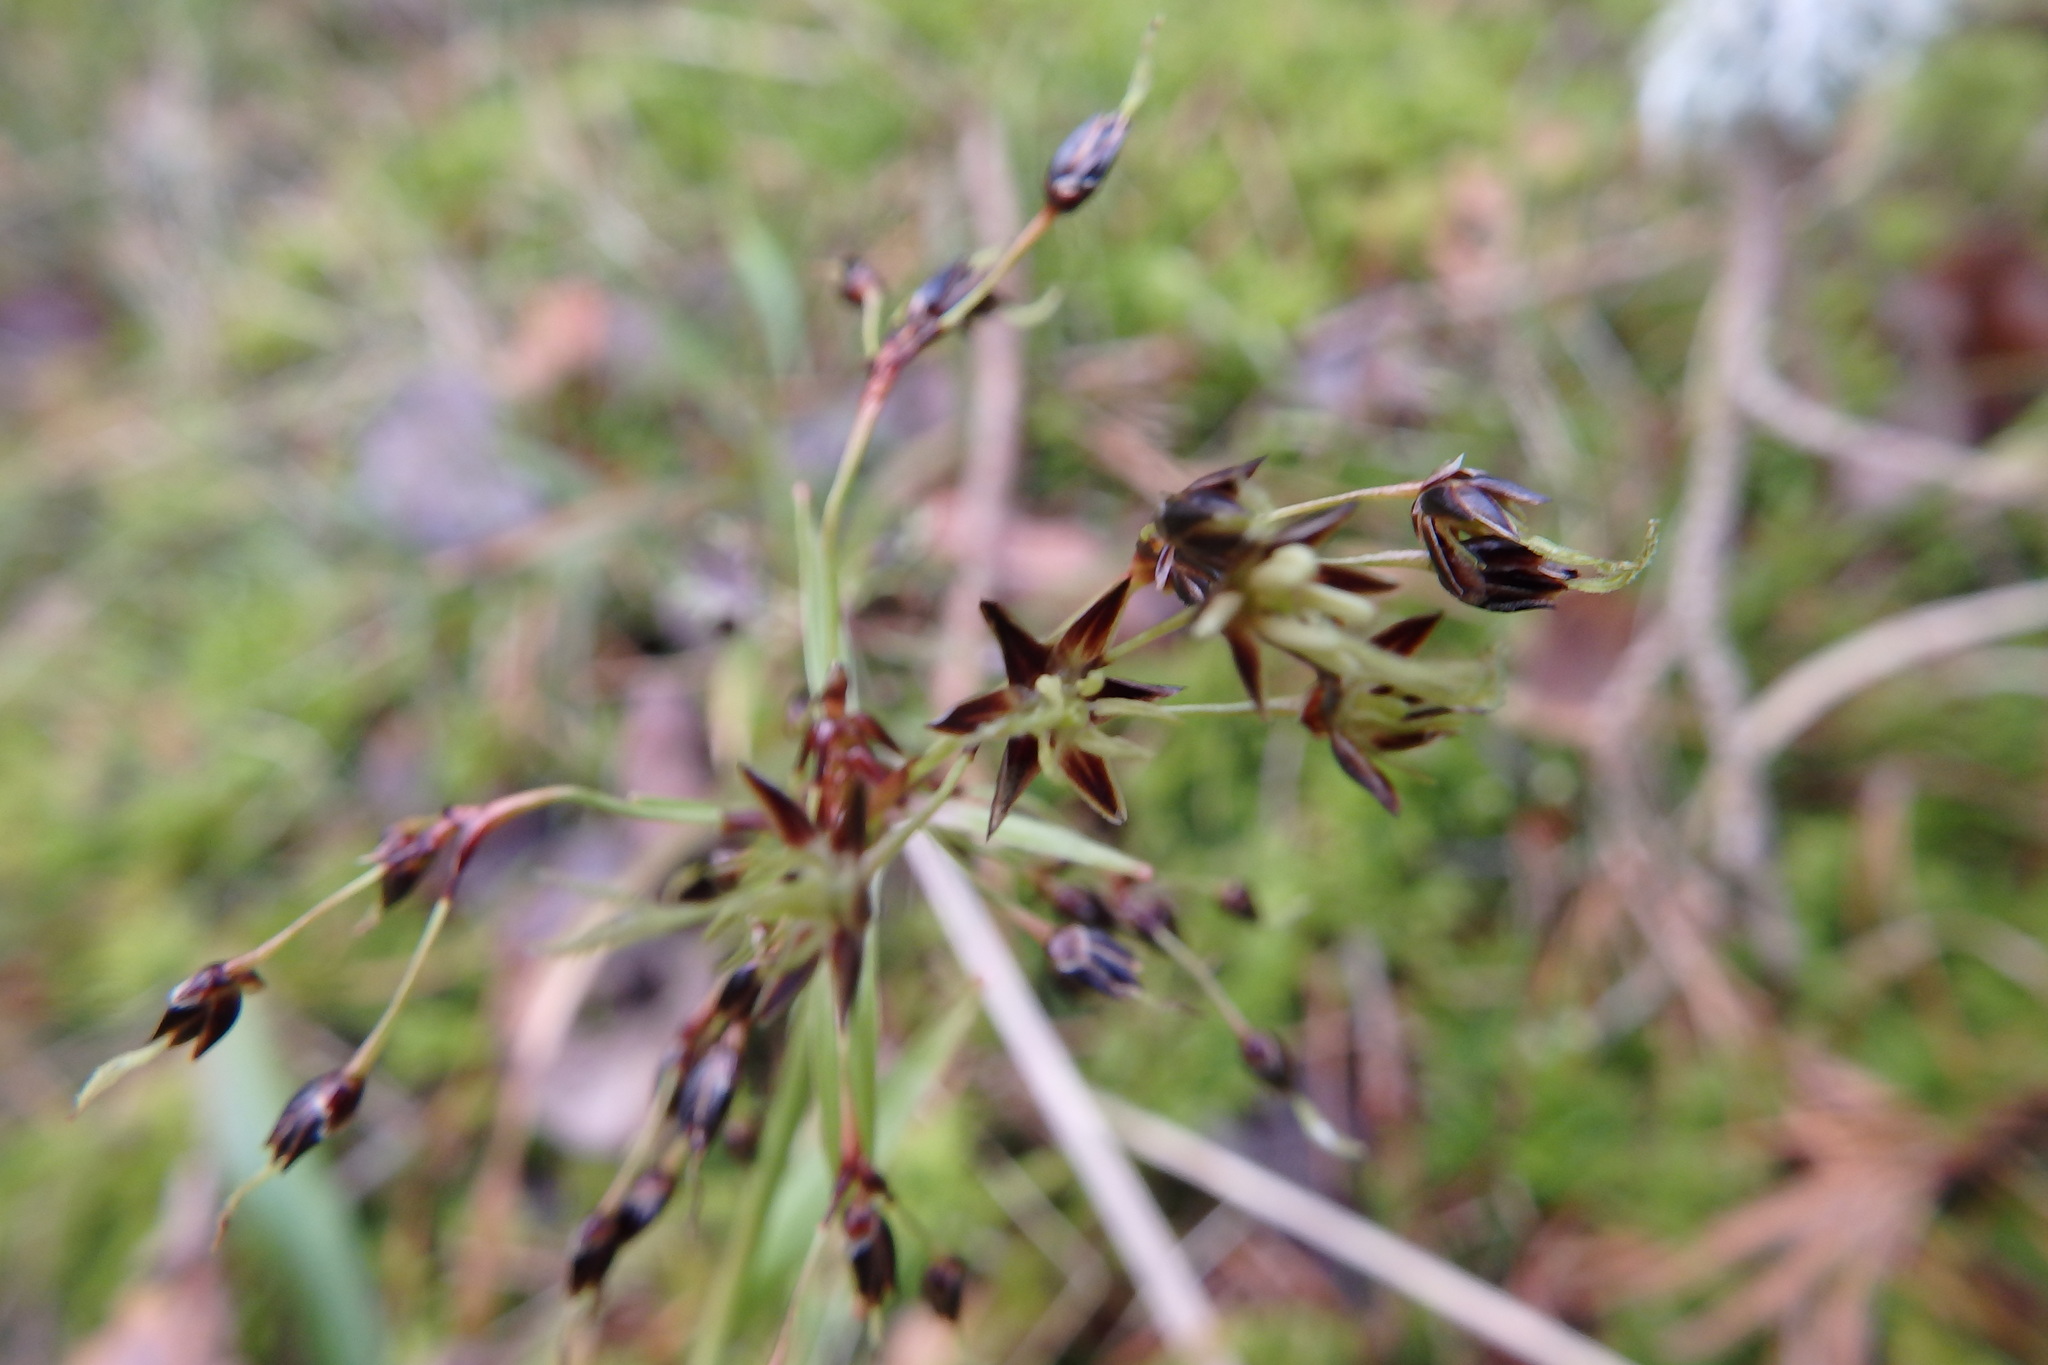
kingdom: Plantae
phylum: Tracheophyta
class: Liliopsida
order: Poales
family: Juncaceae
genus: Luzula
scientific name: Luzula pilosa
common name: Hairy wood-rush
